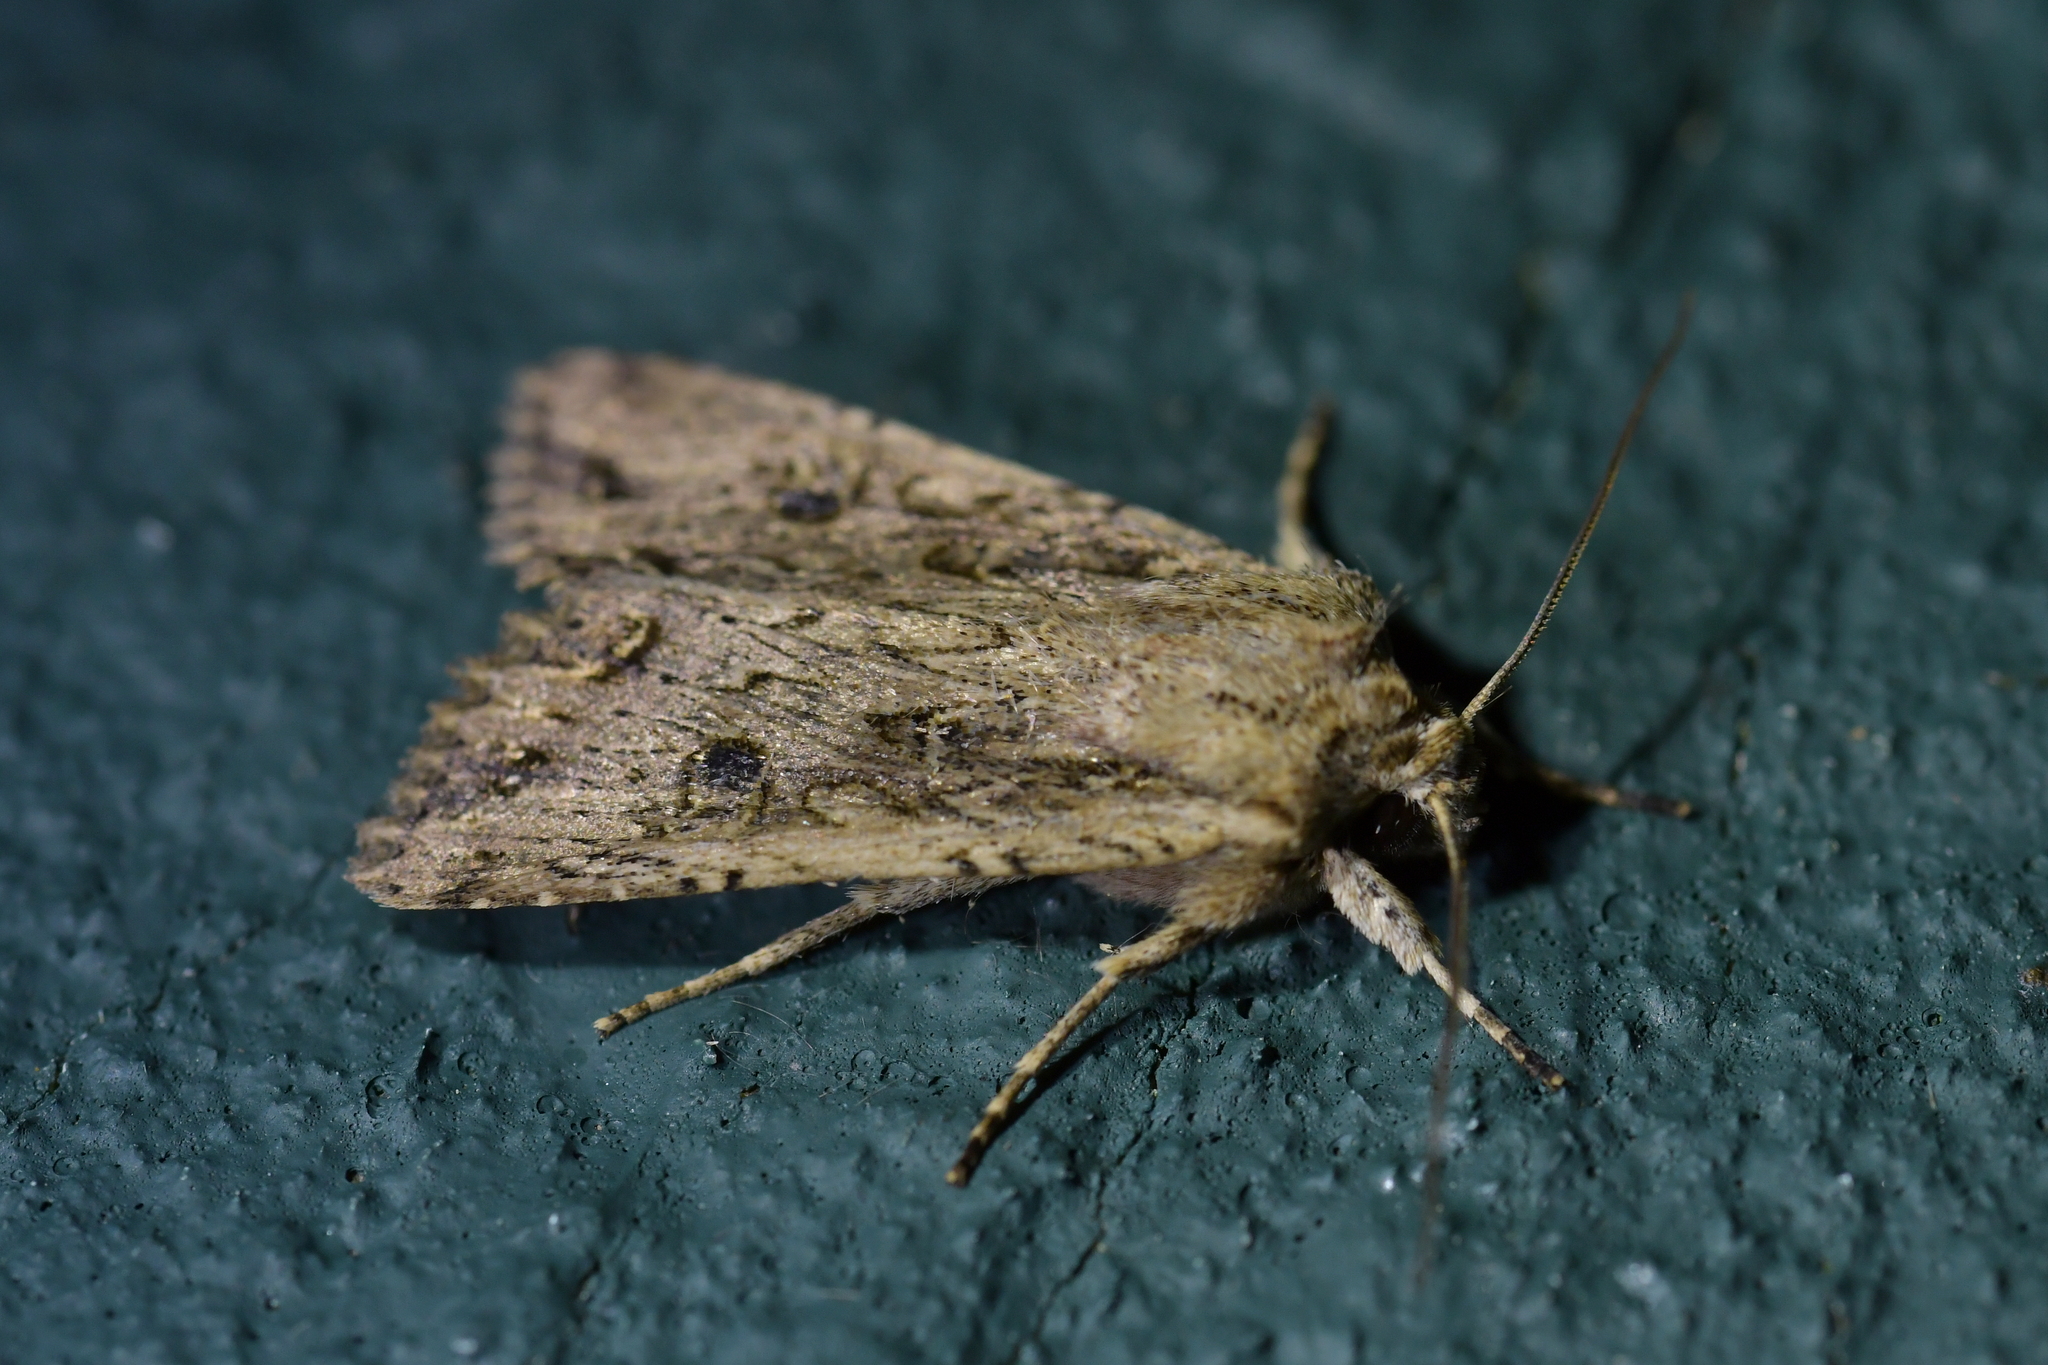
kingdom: Animalia
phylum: Arthropoda
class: Insecta
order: Lepidoptera
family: Noctuidae
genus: Ichneutica
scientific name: Ichneutica lignana
